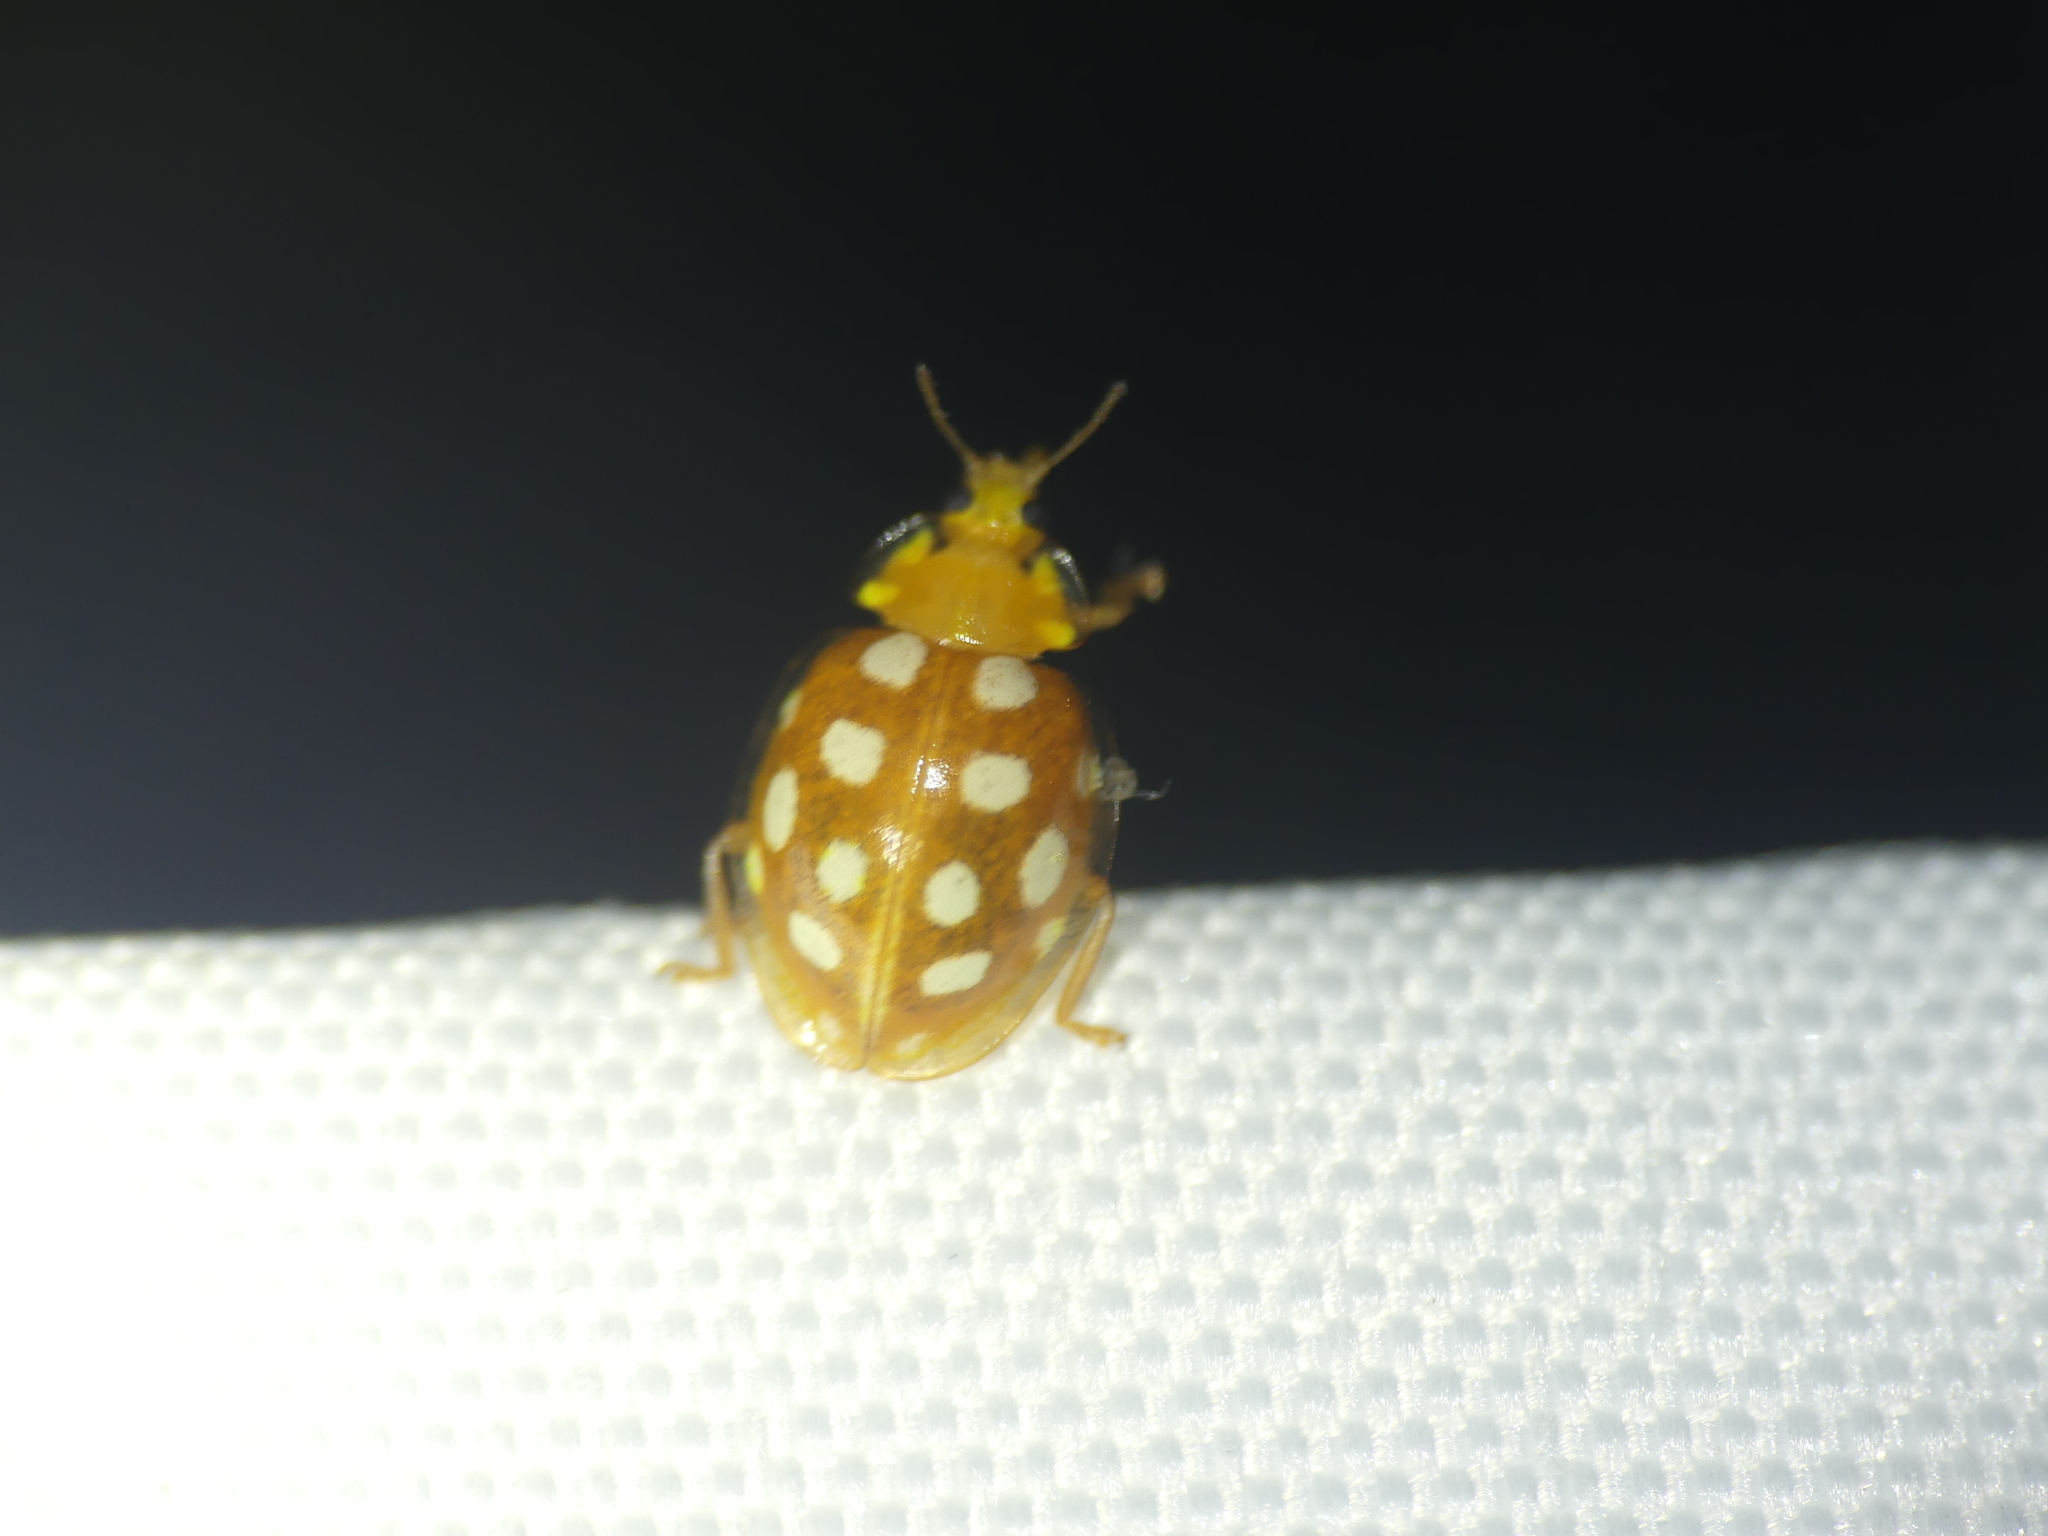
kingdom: Animalia
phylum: Arthropoda
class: Insecta
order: Coleoptera
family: Coccinellidae
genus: Halyzia
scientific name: Halyzia sedecimguttata
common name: Orange ladybird
